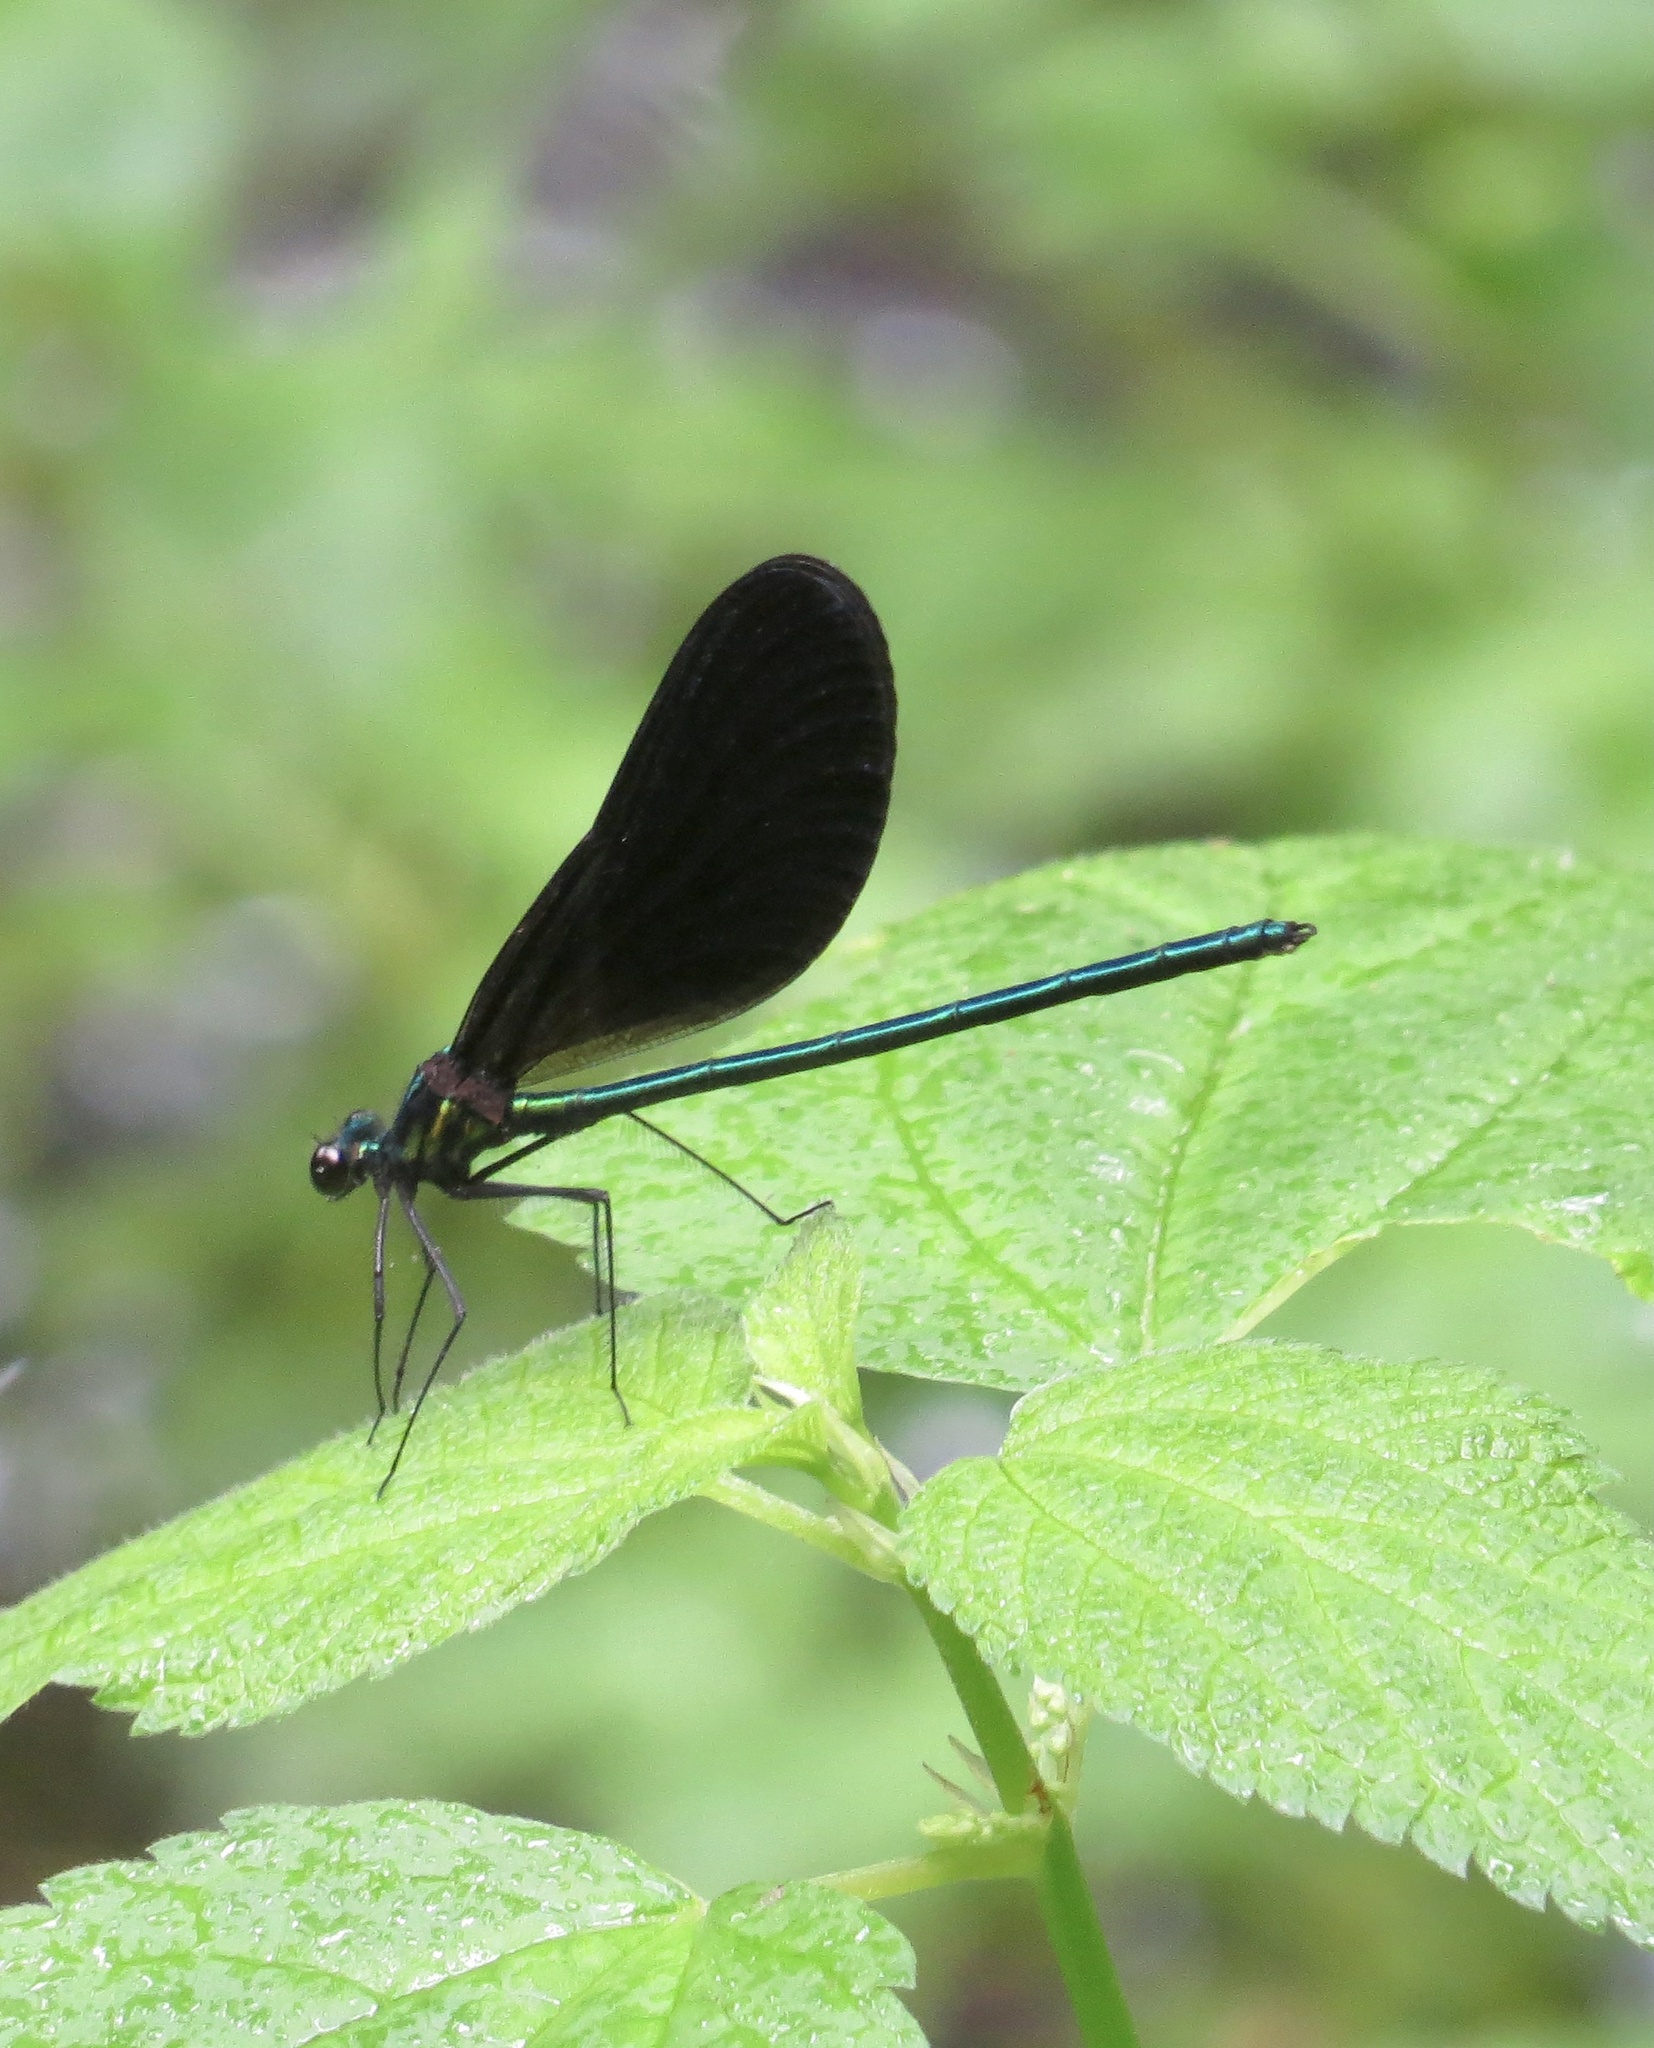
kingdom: Animalia
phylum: Arthropoda
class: Insecta
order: Odonata
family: Calopterygidae
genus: Calopteryx
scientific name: Calopteryx maculata
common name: Ebony jewelwing
